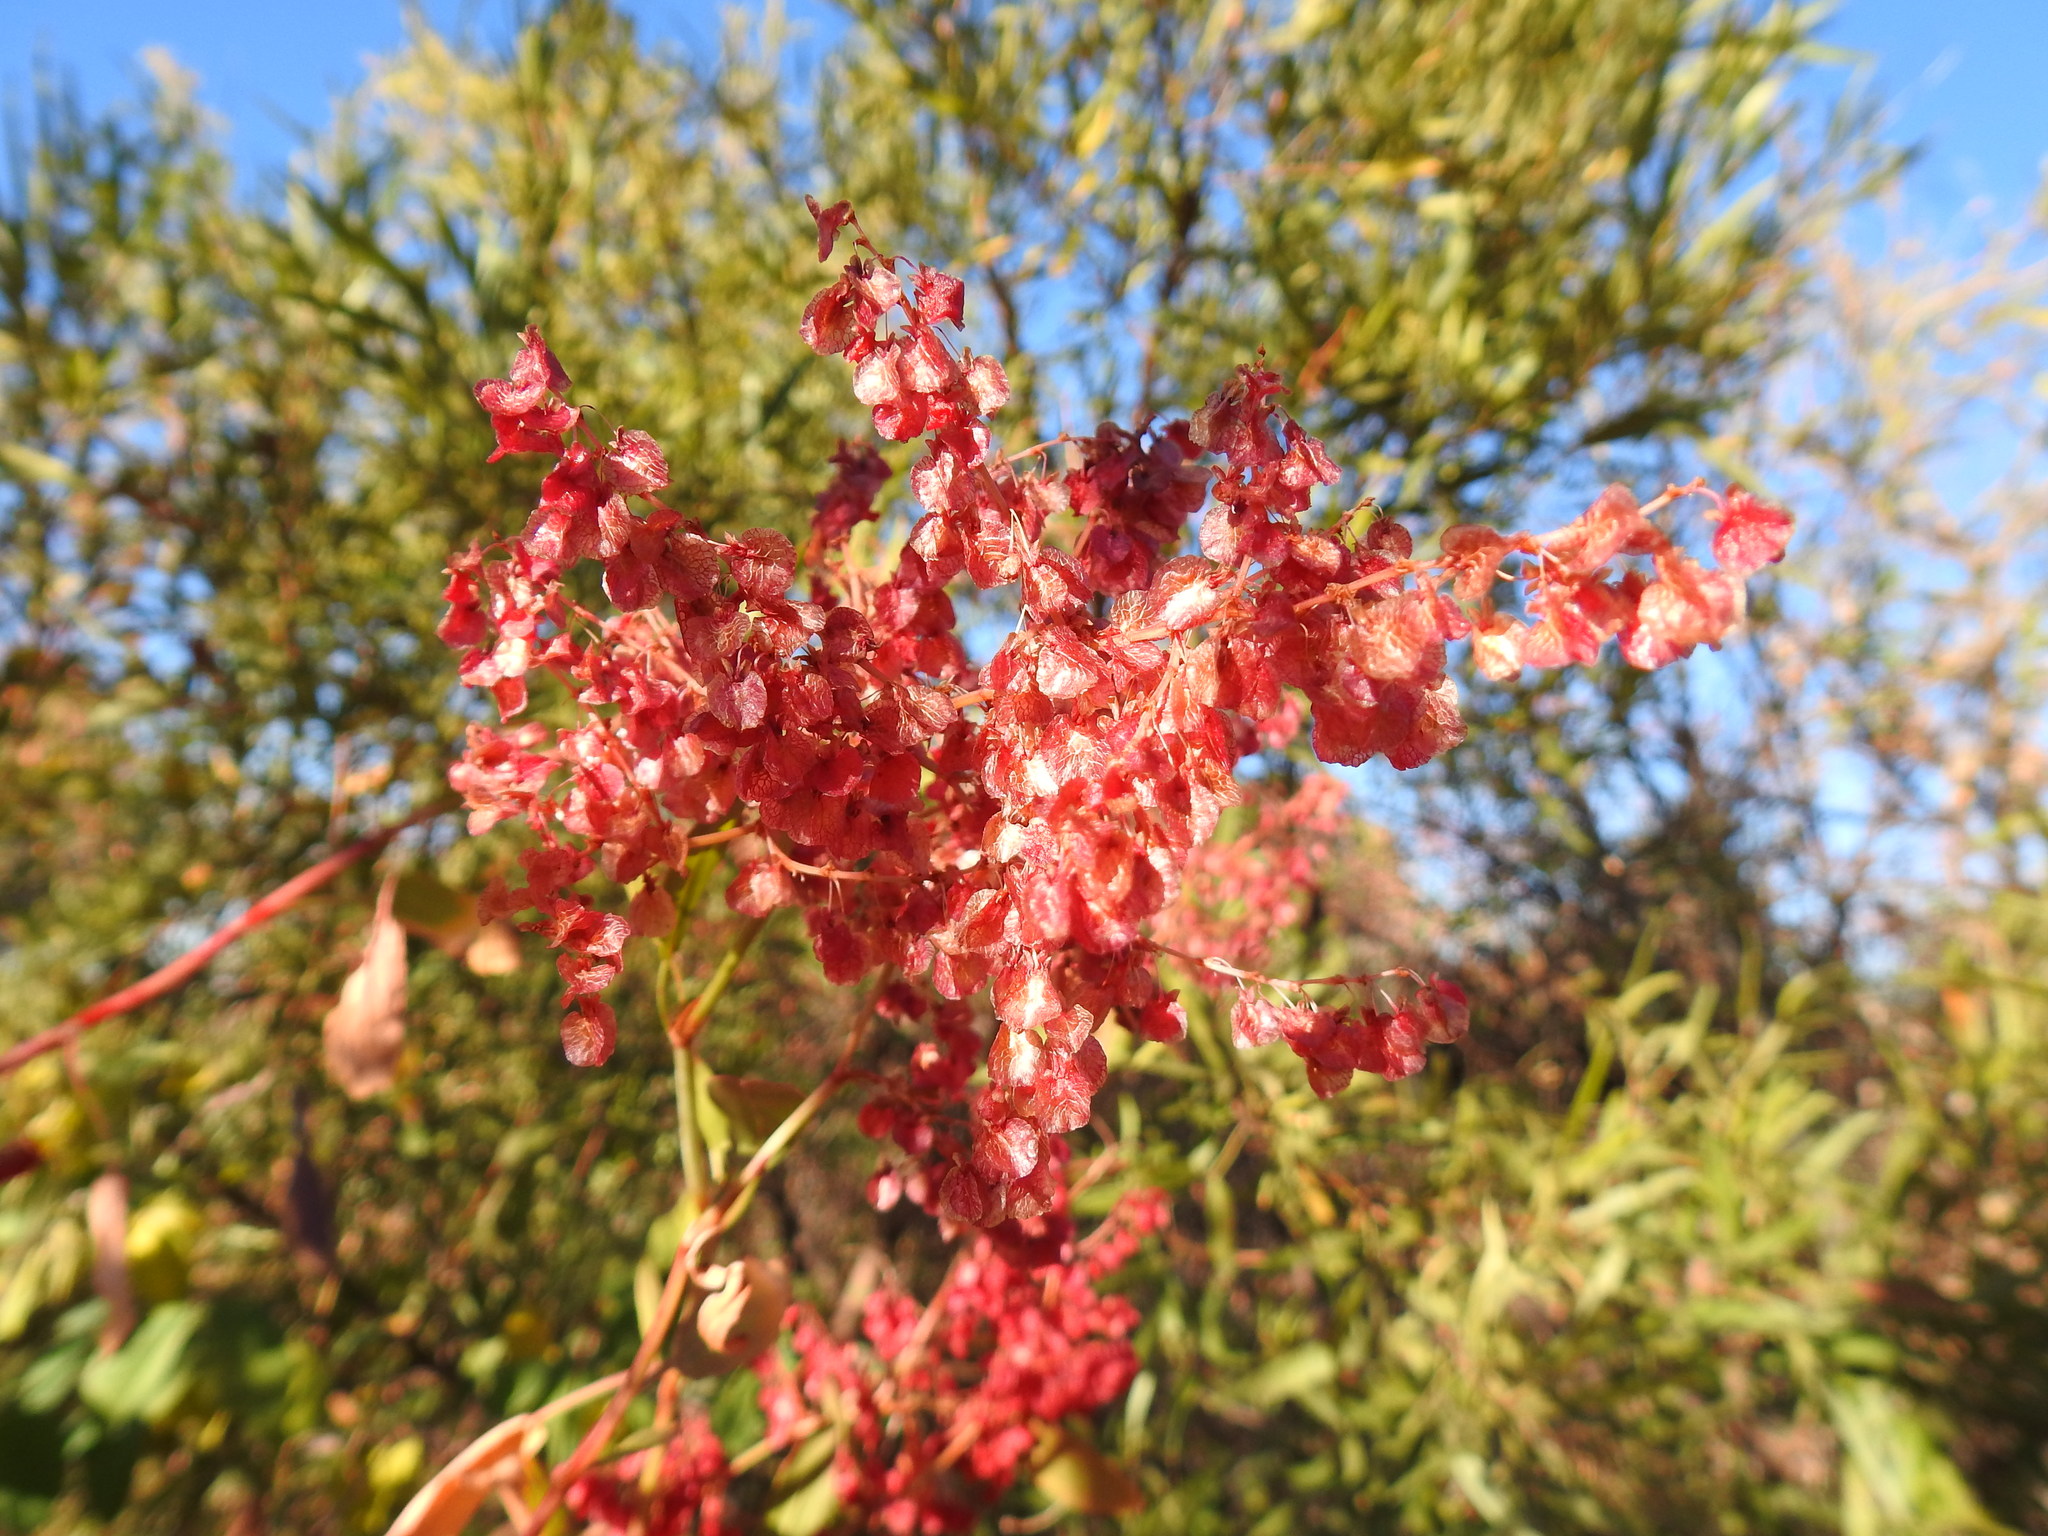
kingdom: Plantae
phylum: Tracheophyta
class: Magnoliopsida
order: Caryophyllales
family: Polygonaceae
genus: Rumex
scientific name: Rumex sagittatus
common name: Climbing dock
